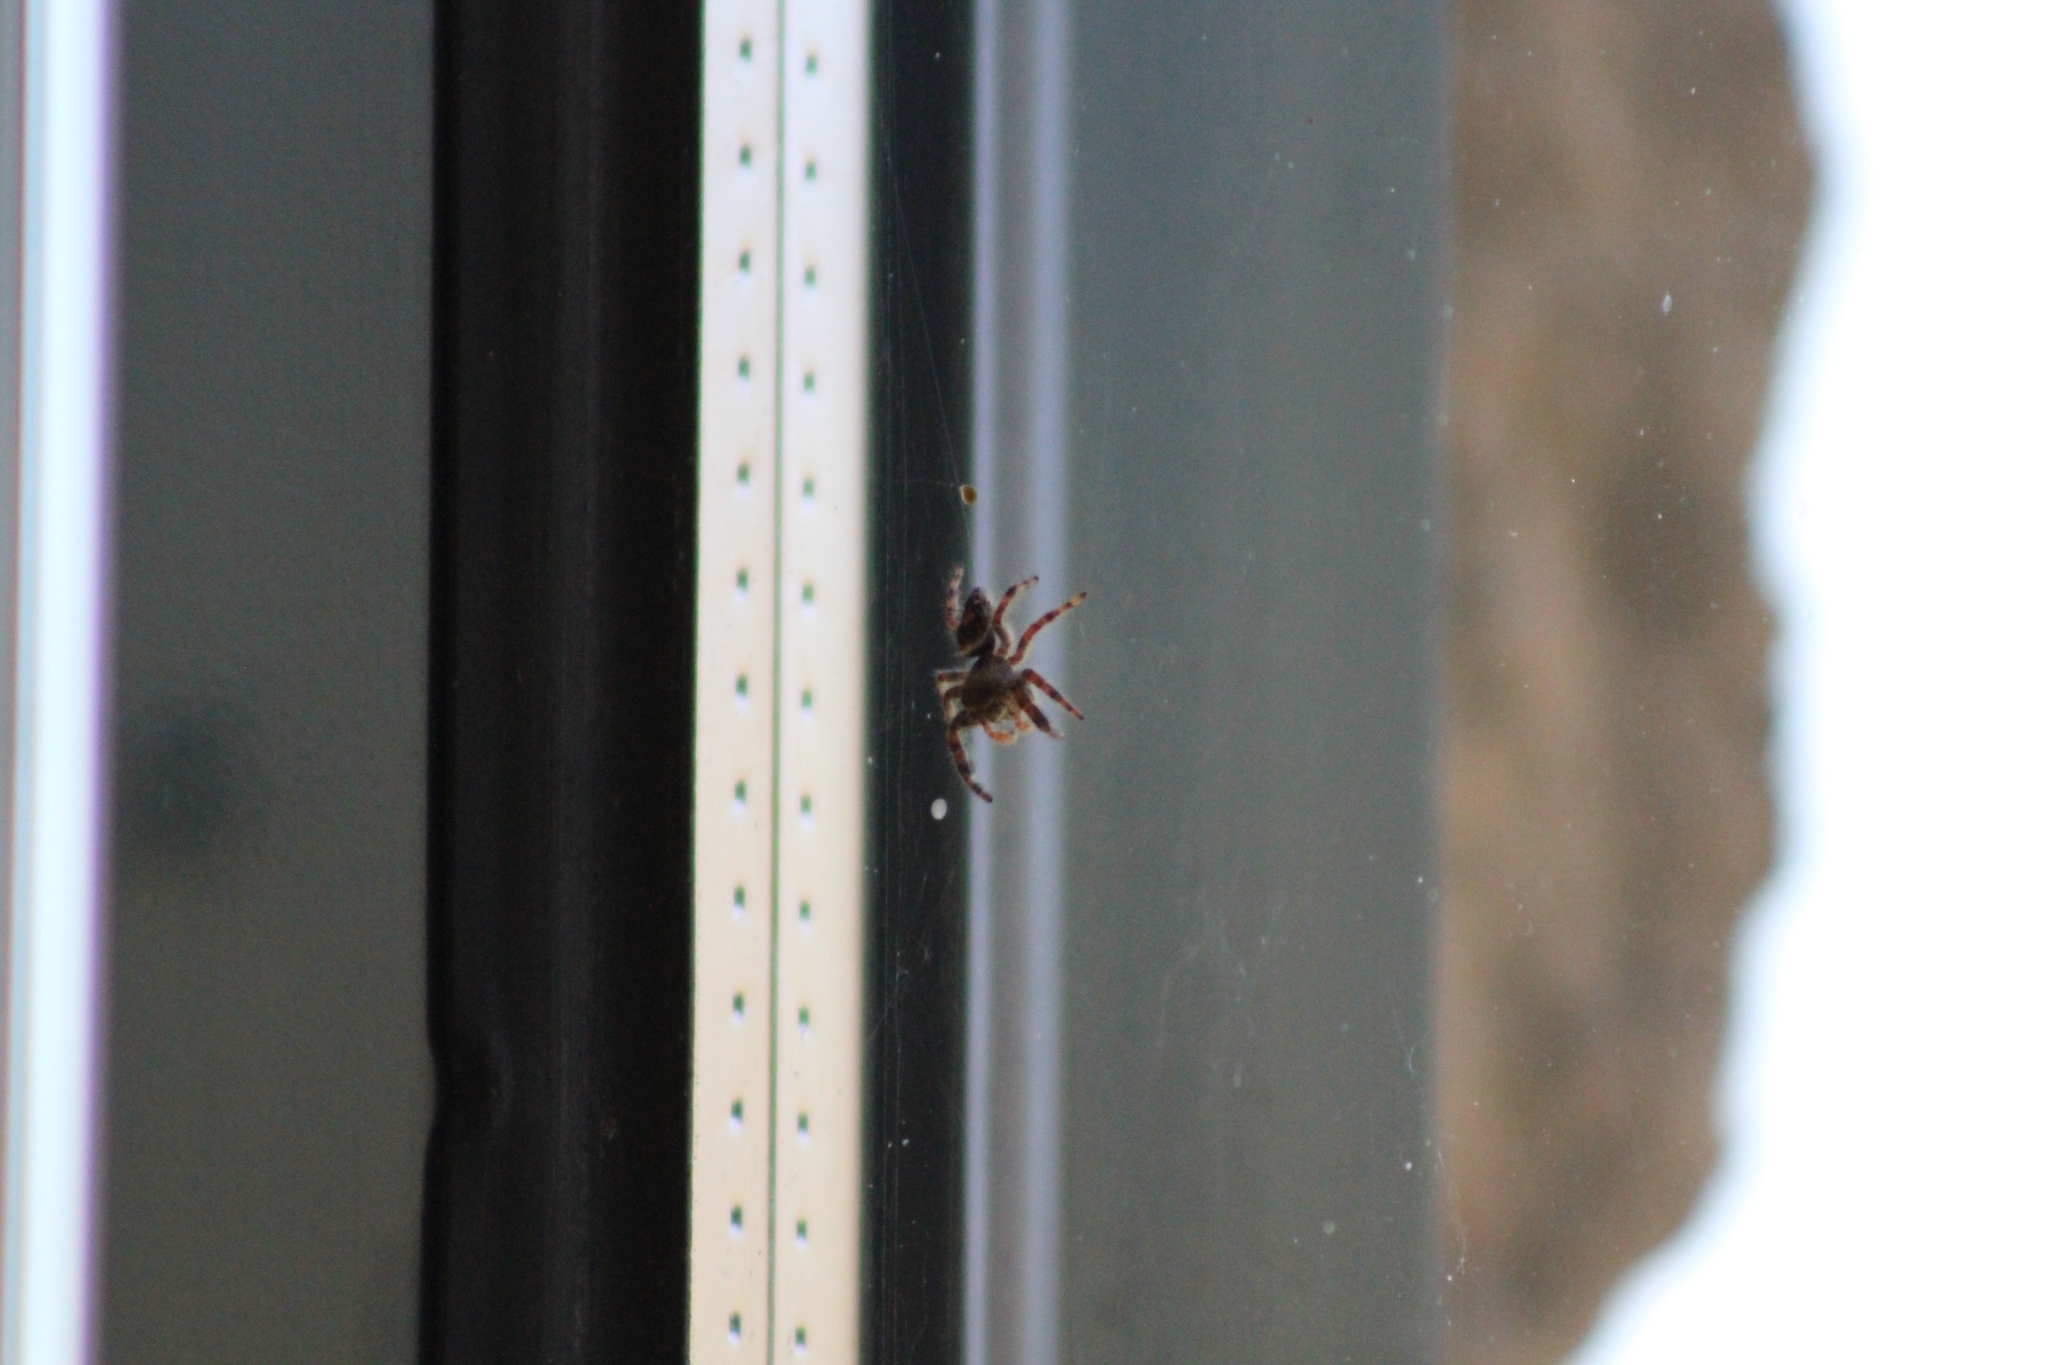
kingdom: Animalia
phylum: Arthropoda
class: Arachnida
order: Araneae
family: Salticidae
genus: Phidippus
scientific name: Phidippus audax
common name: Bold jumper
